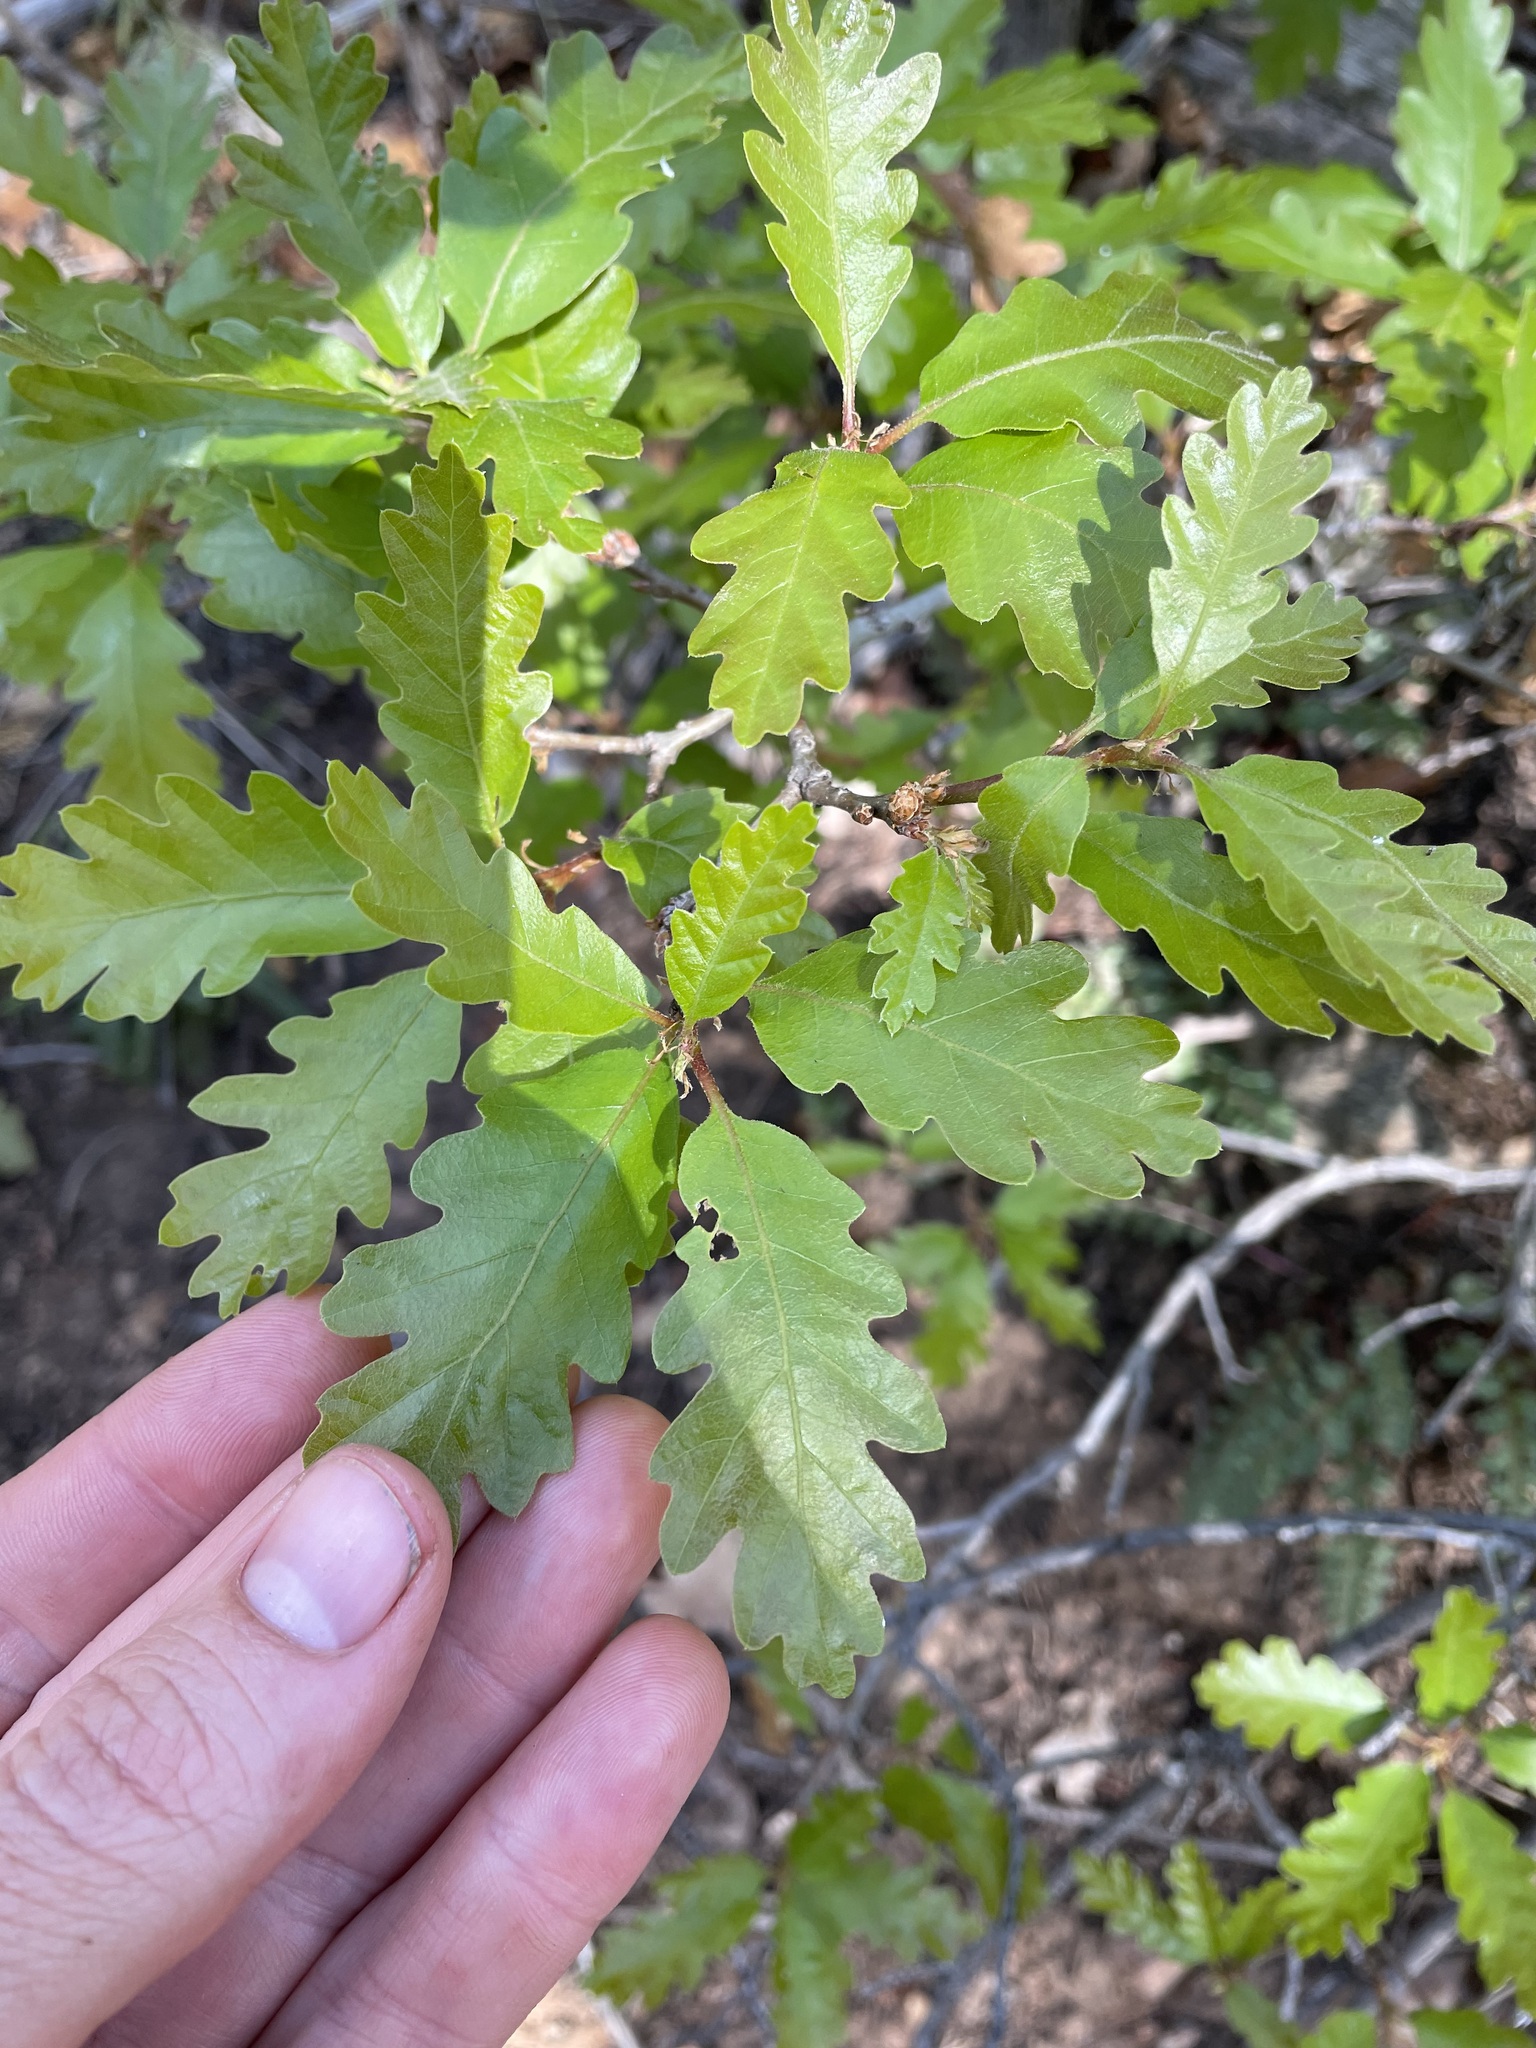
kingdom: Plantae
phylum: Tracheophyta
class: Magnoliopsida
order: Fagales
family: Fagaceae
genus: Quercus
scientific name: Quercus gambelii
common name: Gambel oak
